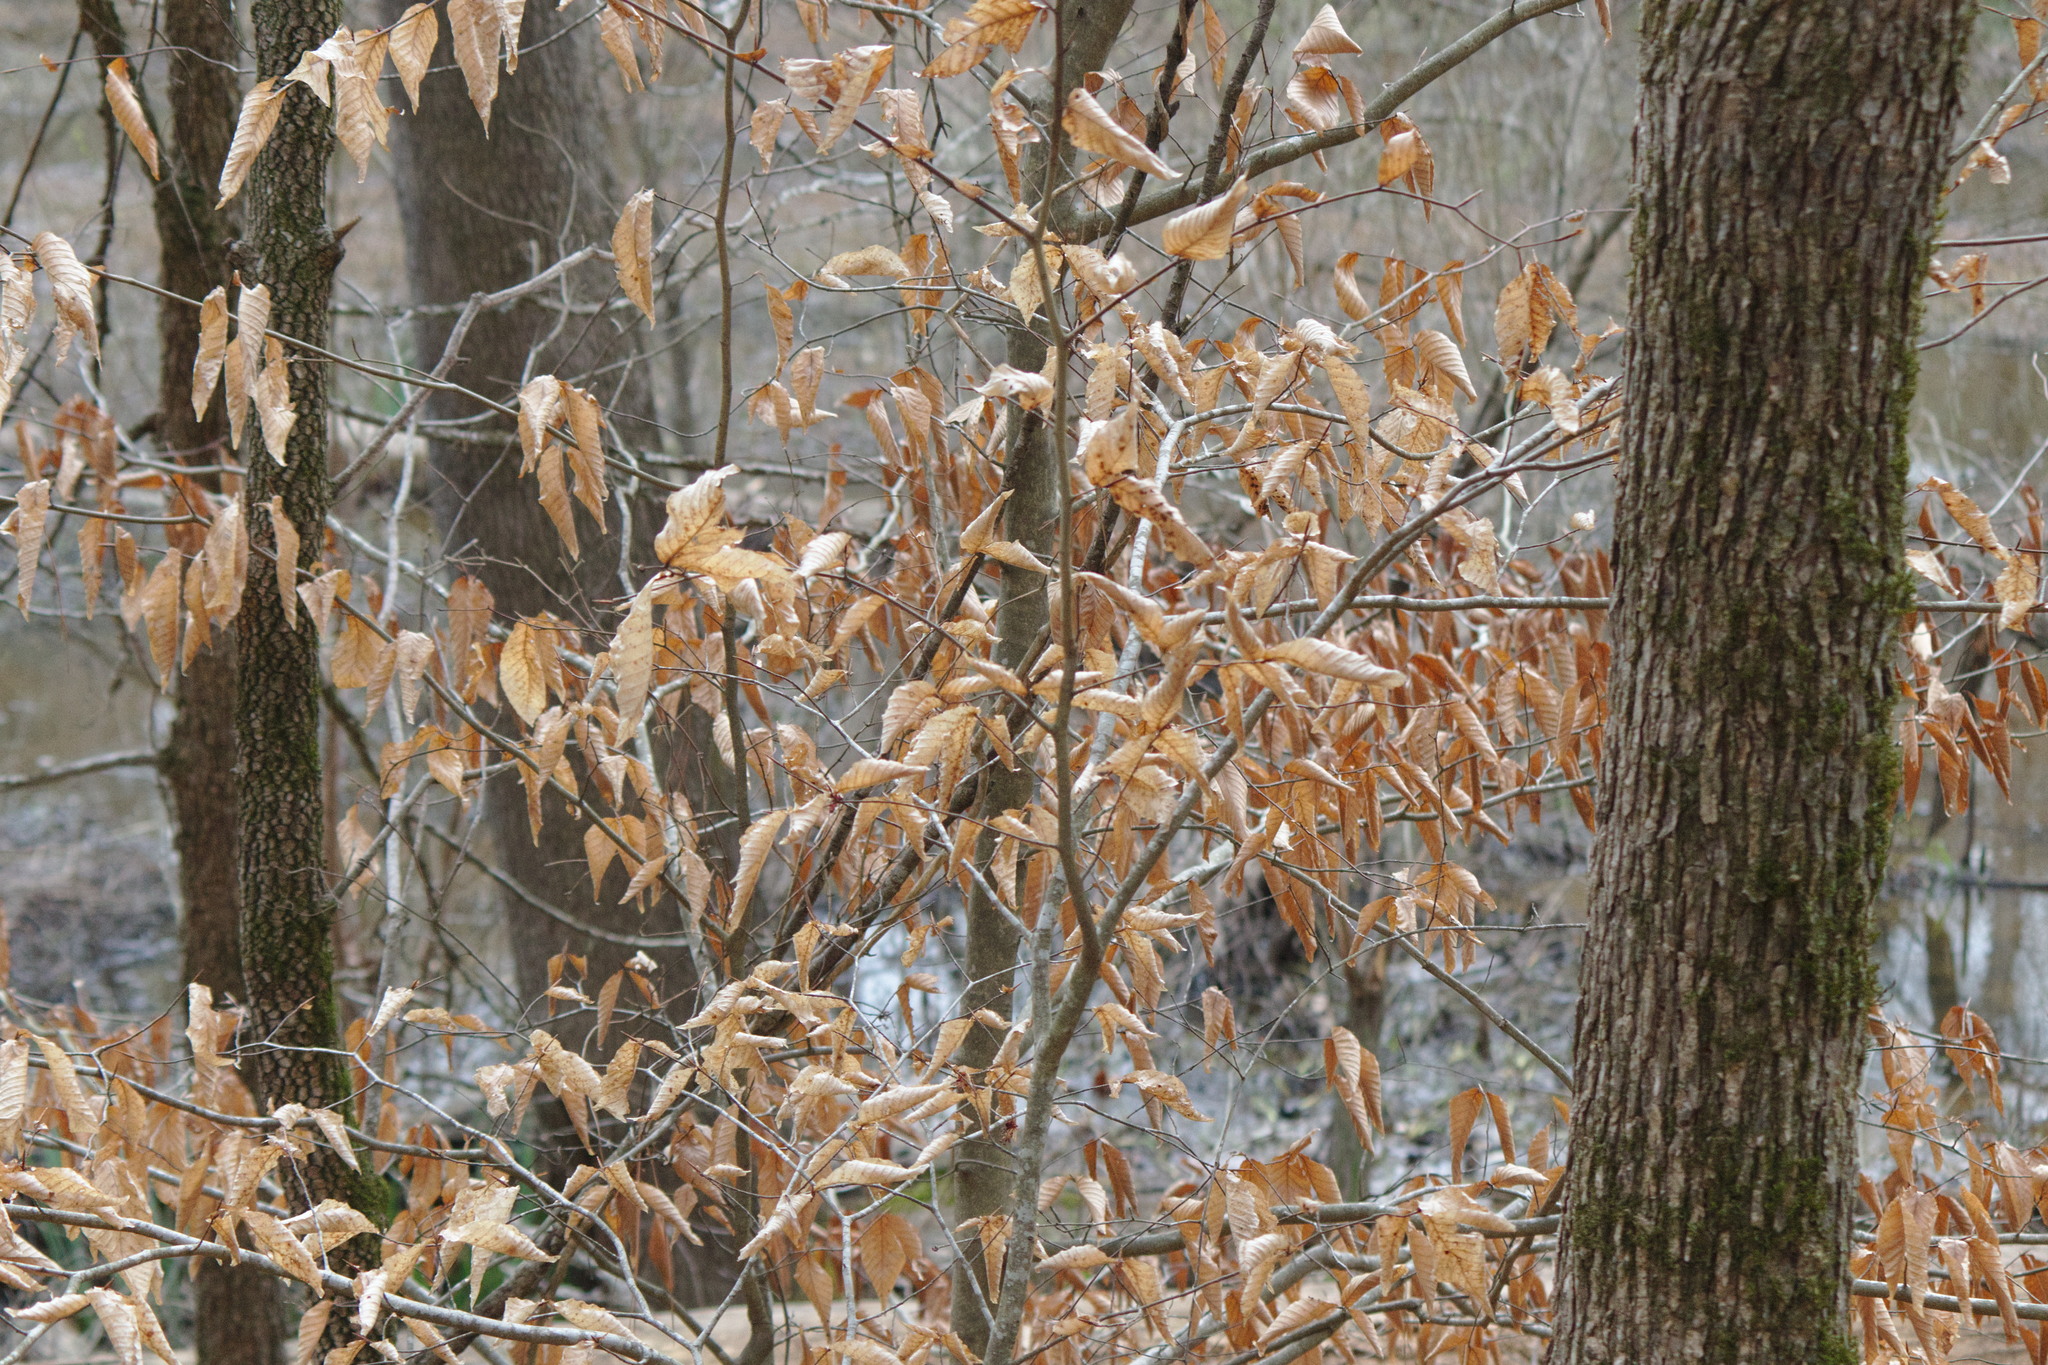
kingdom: Plantae
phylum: Tracheophyta
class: Magnoliopsida
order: Fagales
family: Fagaceae
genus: Fagus
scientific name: Fagus grandifolia
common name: American beech
